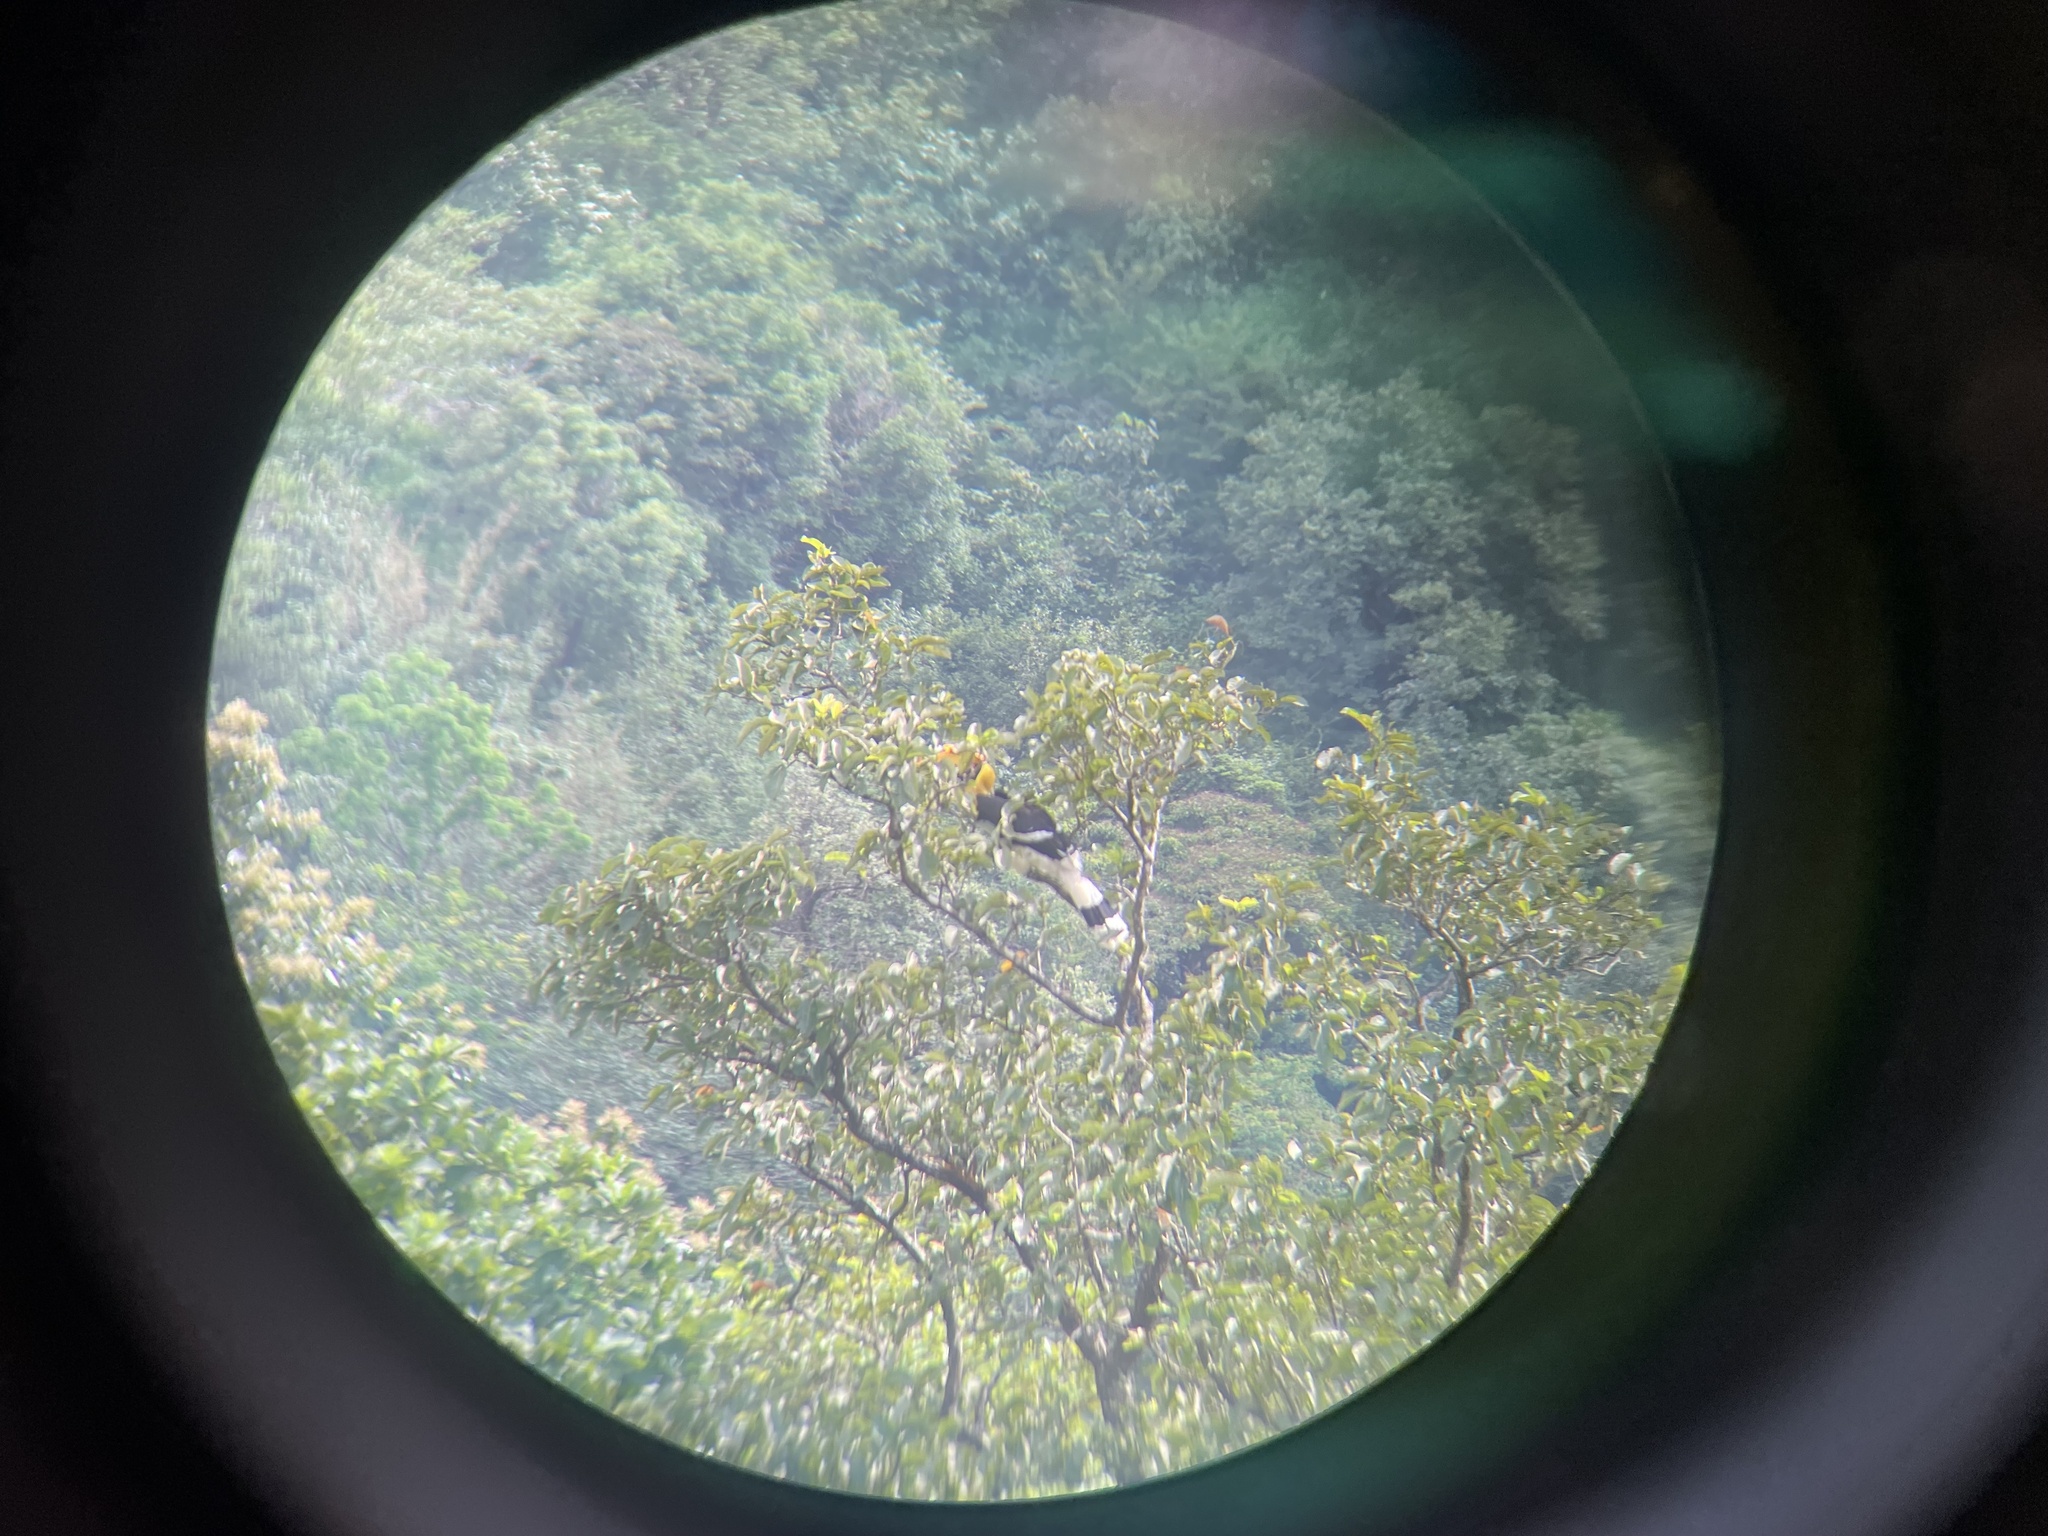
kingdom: Animalia
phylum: Chordata
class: Aves
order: Bucerotiformes
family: Bucerotidae
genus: Buceros
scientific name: Buceros bicornis
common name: Great hornbill
